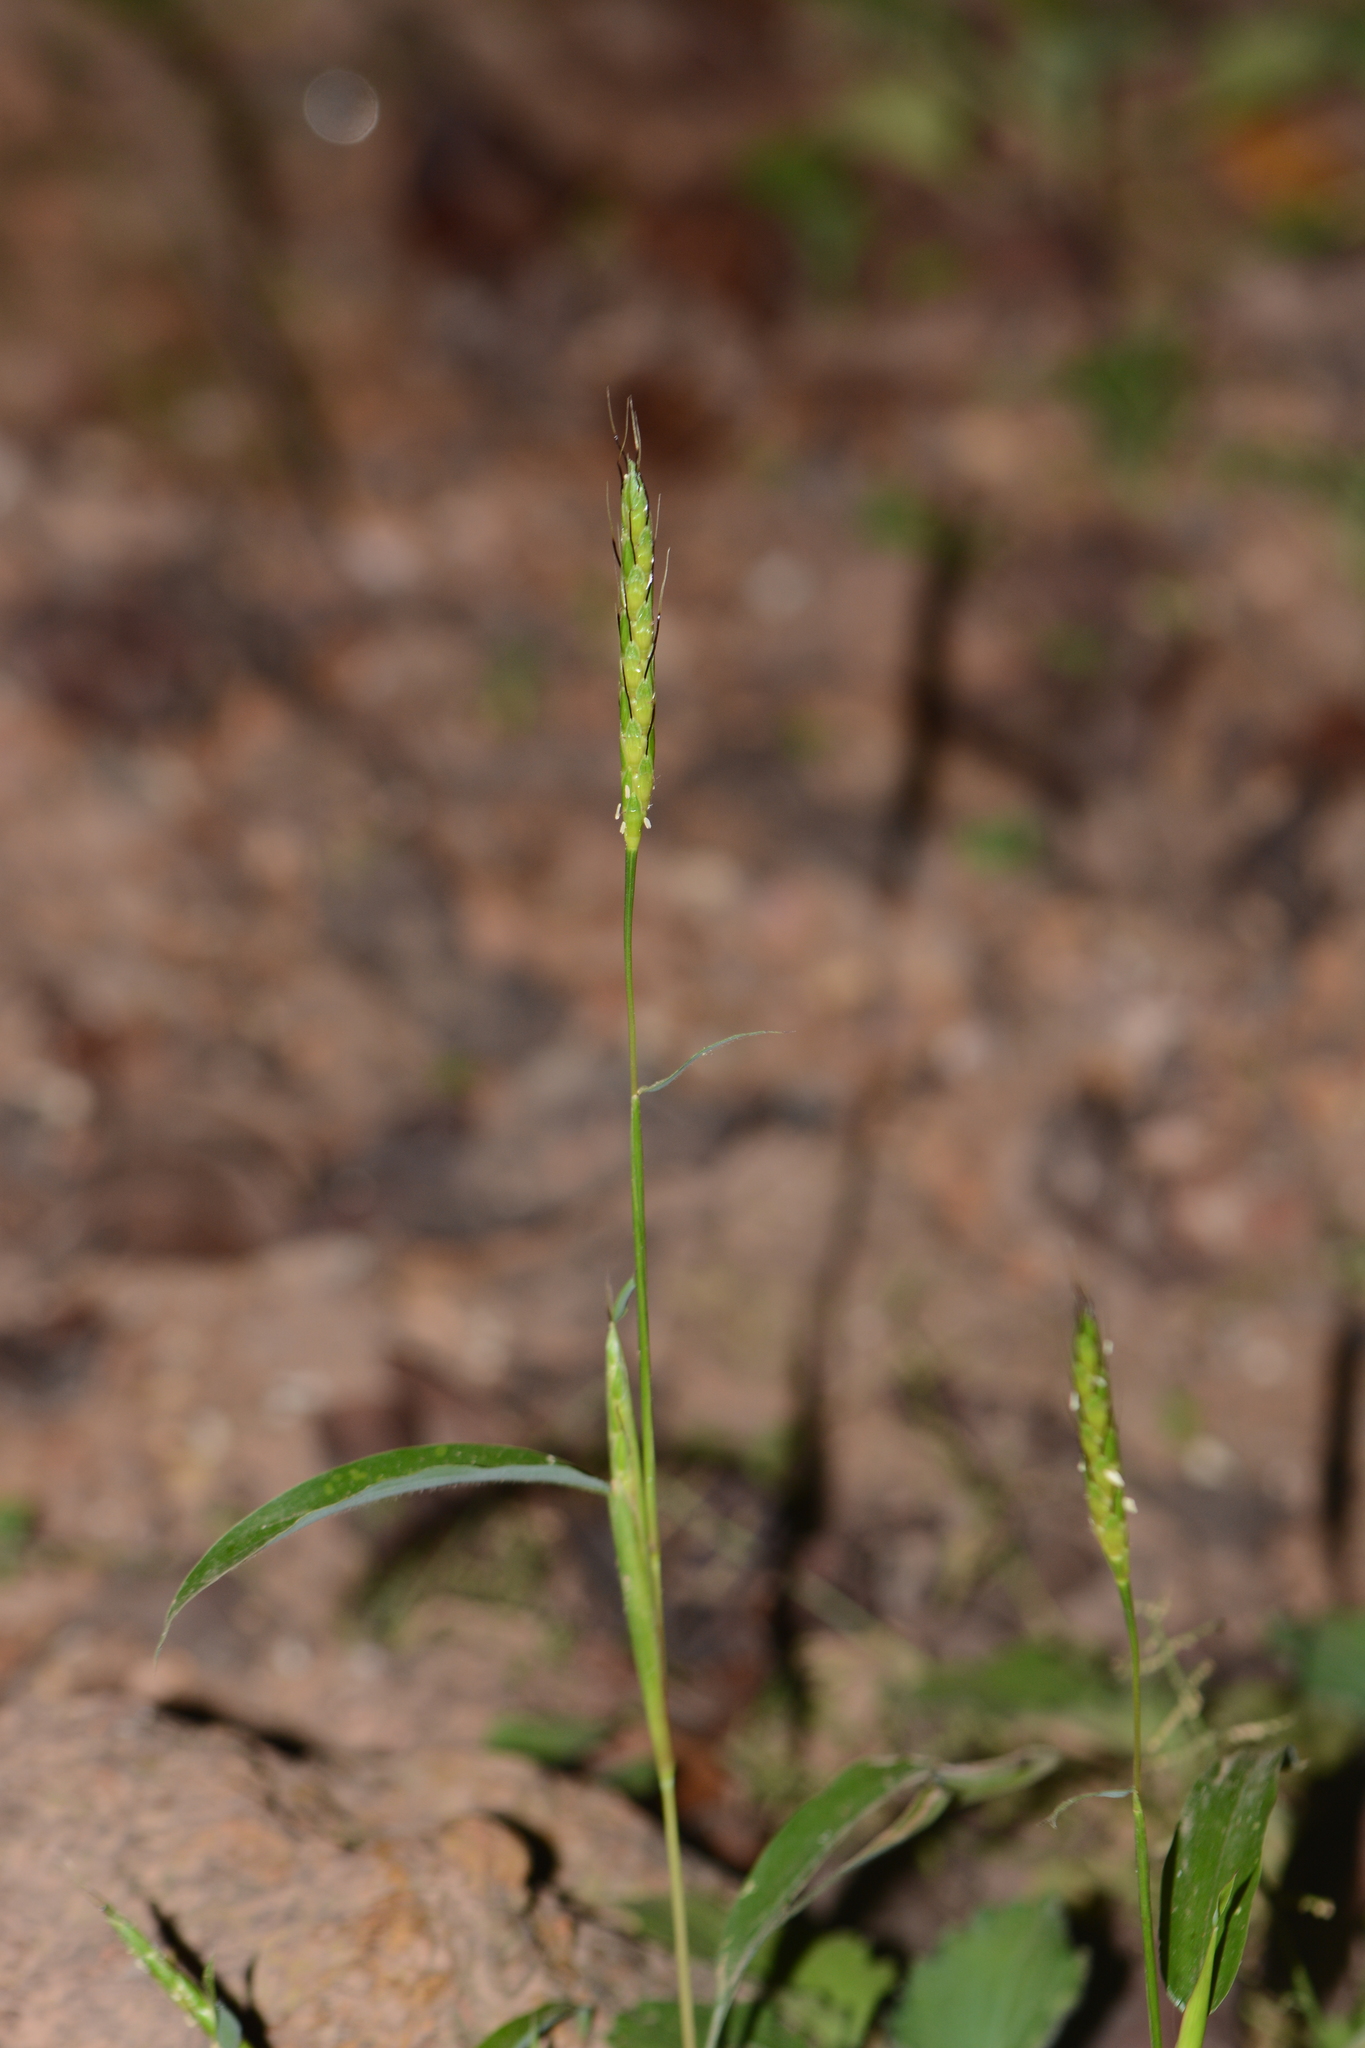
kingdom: Plantae
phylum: Tracheophyta
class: Liliopsida
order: Poales
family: Poaceae
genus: Ischaemum
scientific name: Ischaemum impressum
